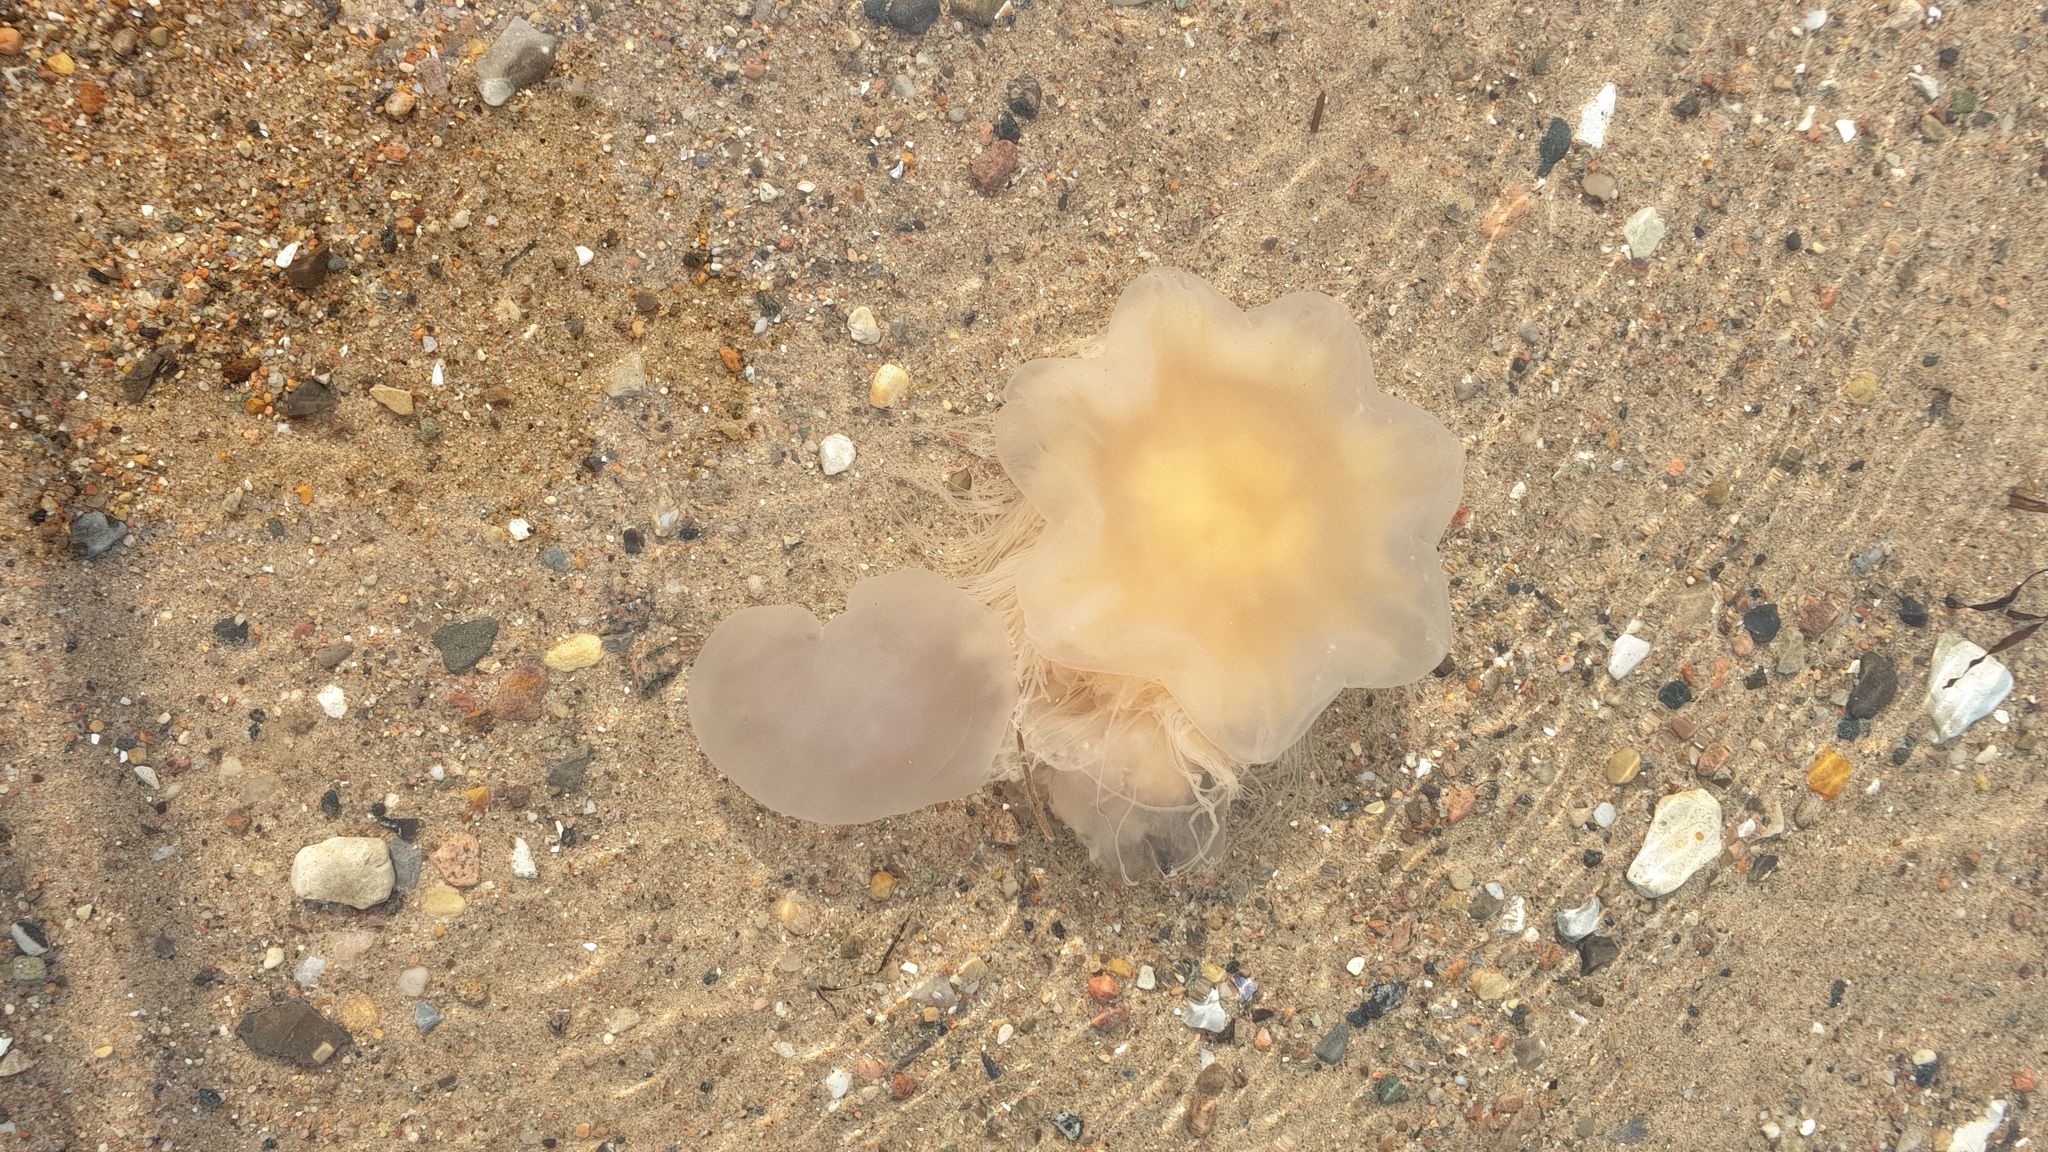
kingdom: Animalia
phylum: Cnidaria
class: Scyphozoa
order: Semaeostomeae
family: Cyaneidae
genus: Cyanea
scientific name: Cyanea capillata
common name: Lion's mane jellyfish
